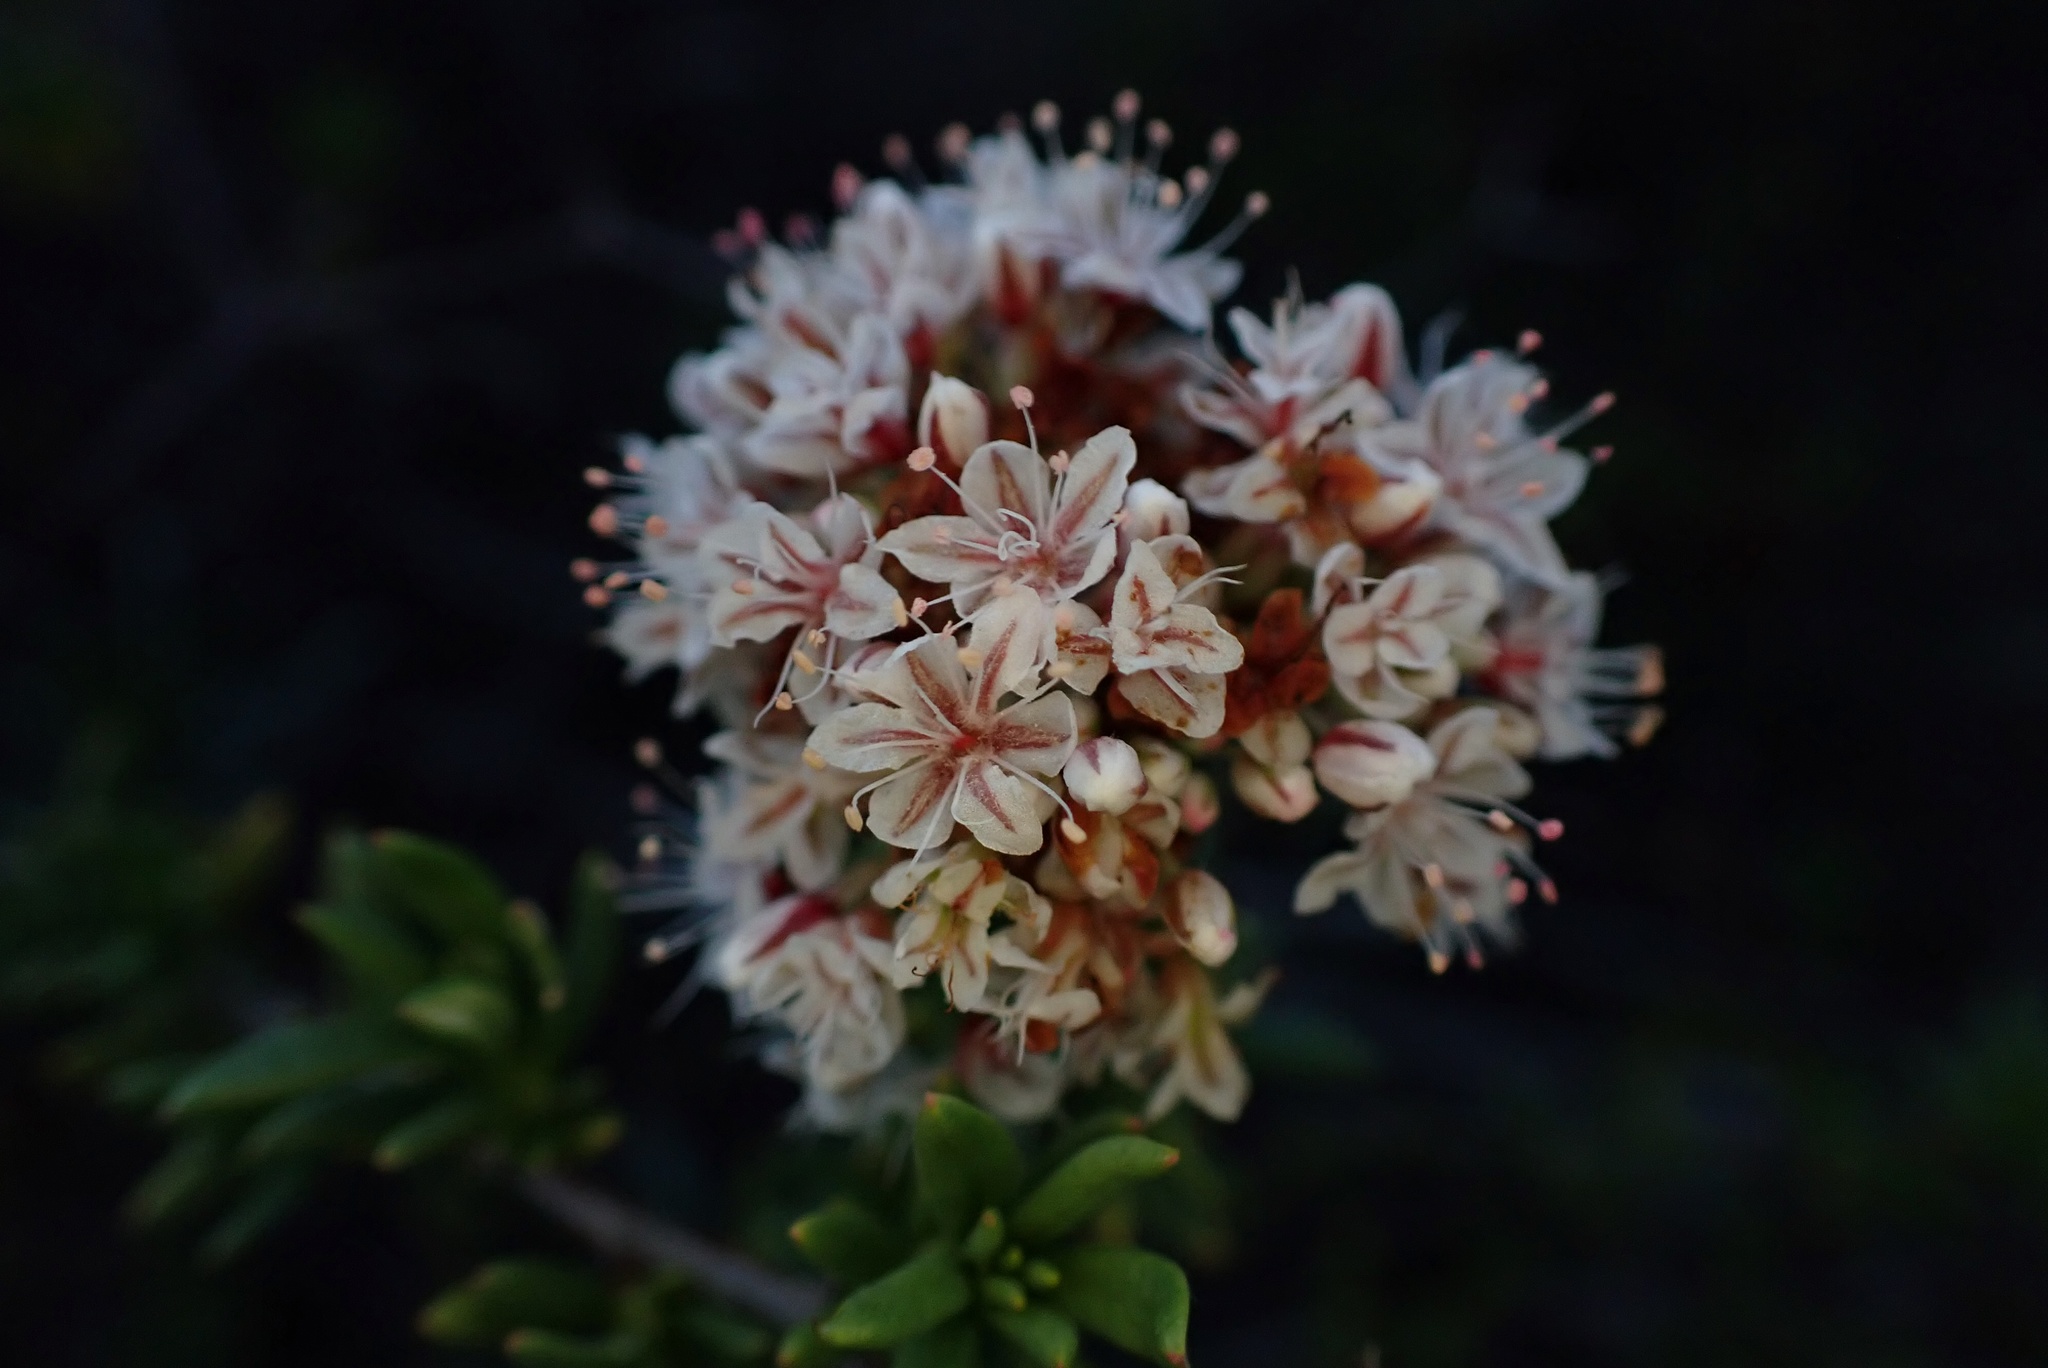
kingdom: Plantae
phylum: Tracheophyta
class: Magnoliopsida
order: Caryophyllales
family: Polygonaceae
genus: Eriogonum
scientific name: Eriogonum fasciculatum
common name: California wild buckwheat
